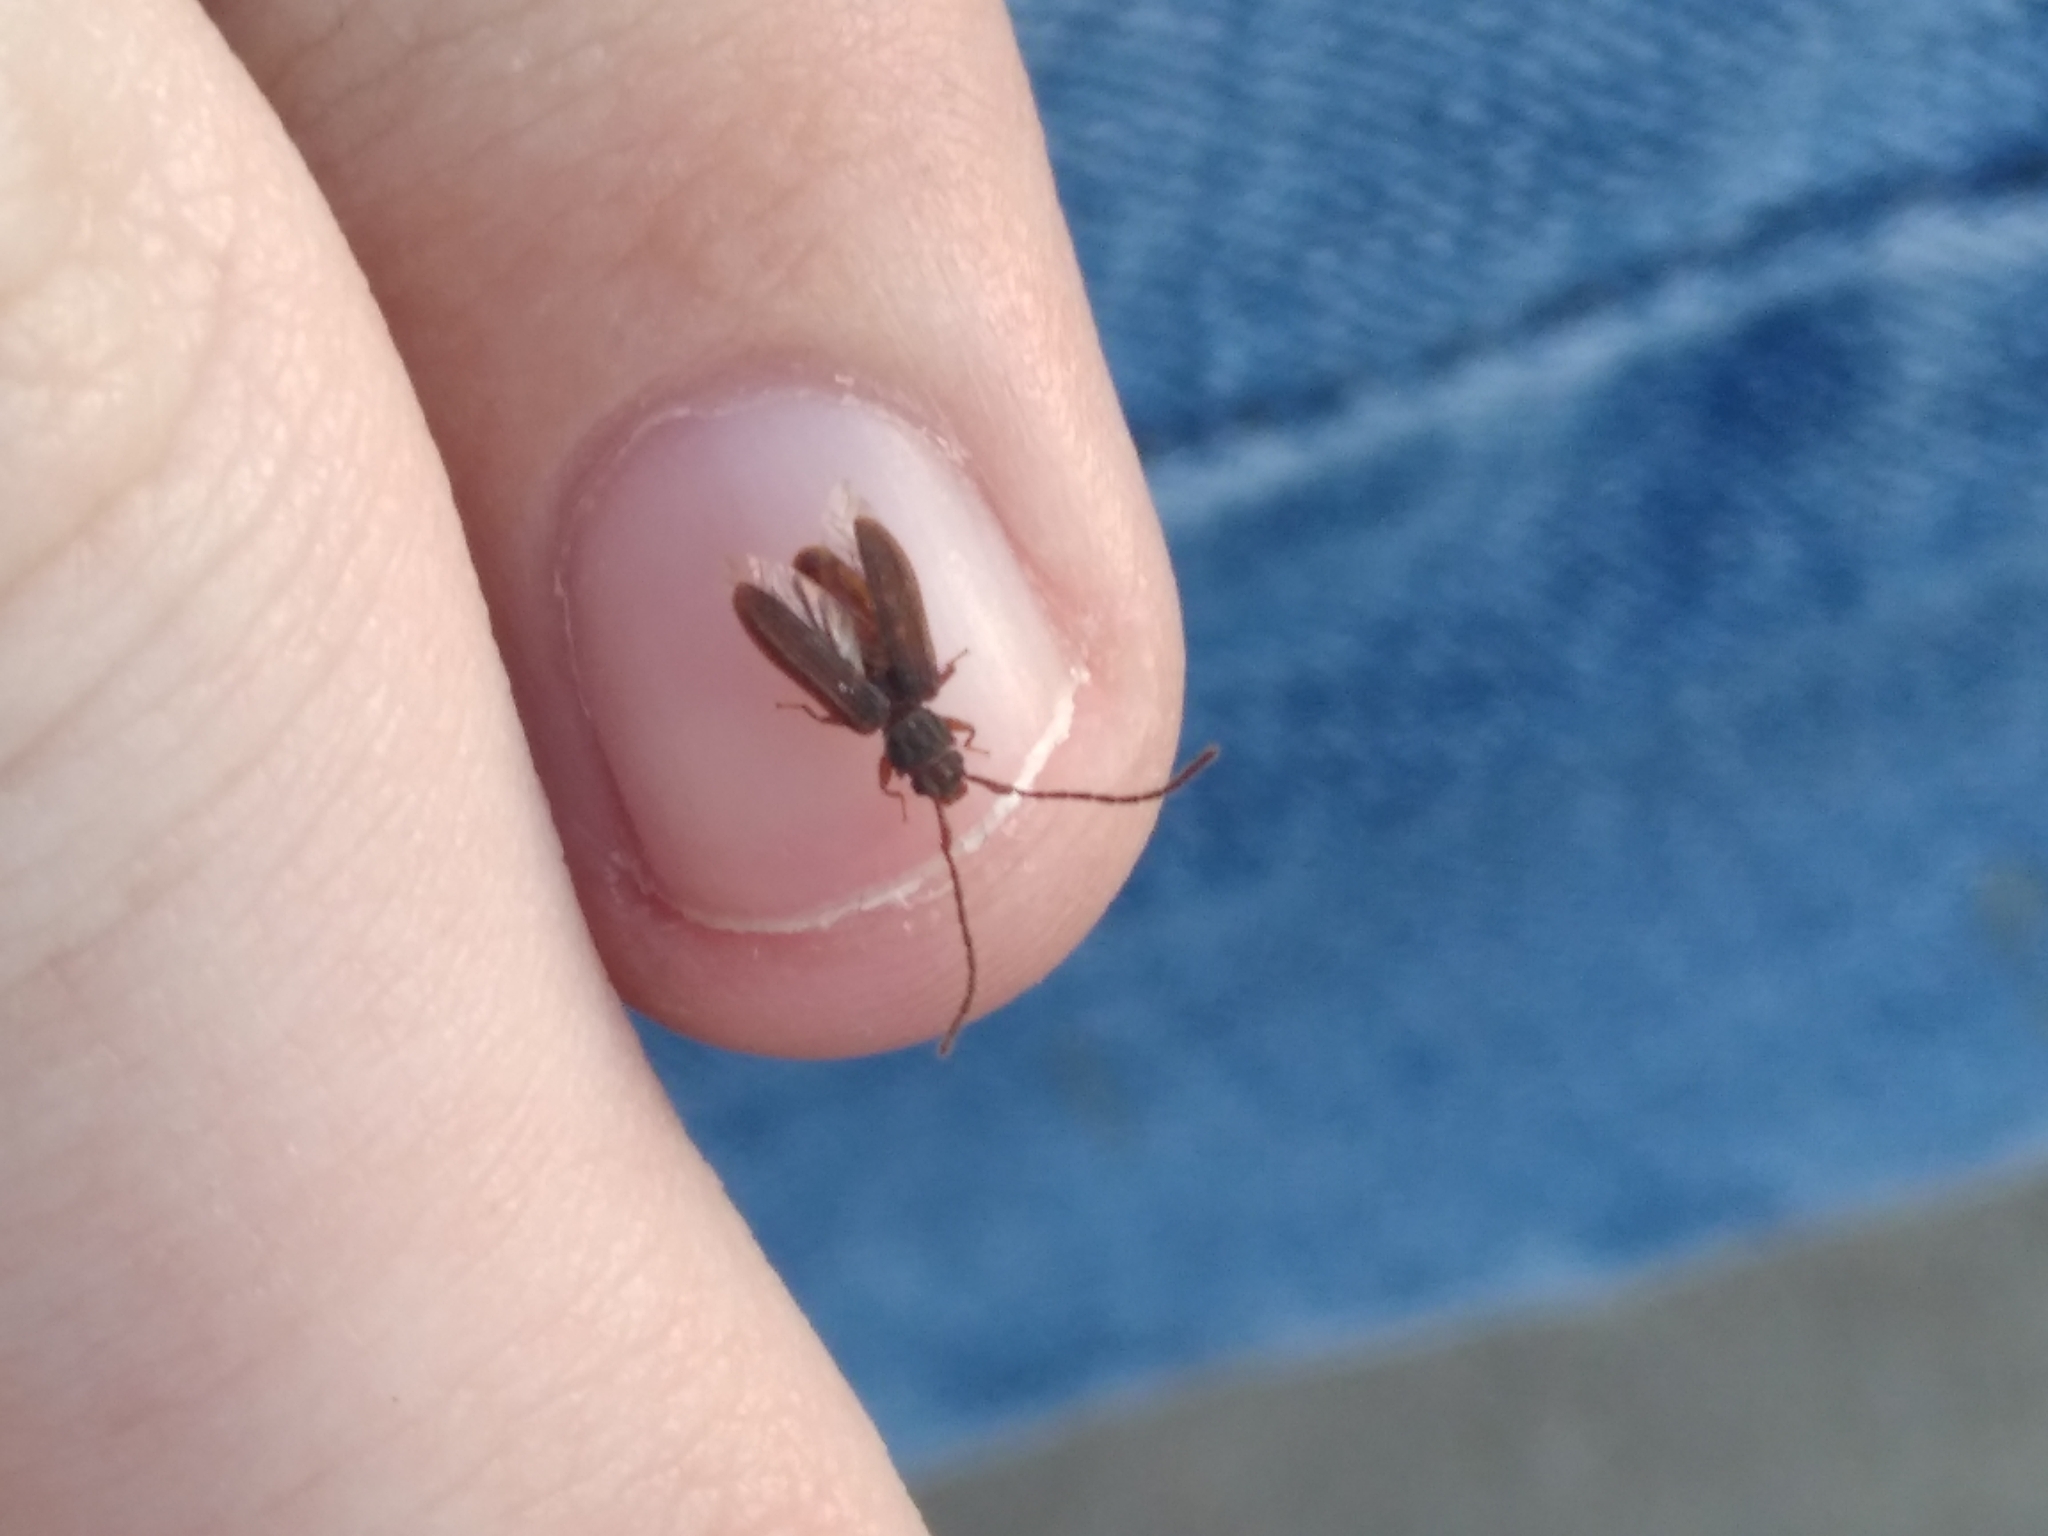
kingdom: Animalia
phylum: Arthropoda
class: Insecta
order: Coleoptera
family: Silvanidae
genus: Uleiota
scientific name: Uleiota planatus
